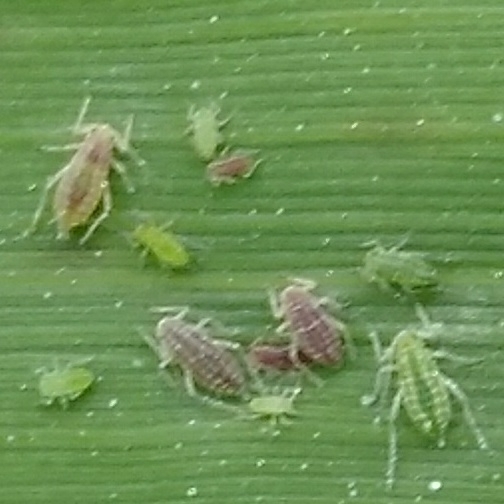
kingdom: Animalia
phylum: Arthropoda
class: Insecta
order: Hemiptera
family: Aphididae
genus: Hyalopterus
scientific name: Hyalopterus
